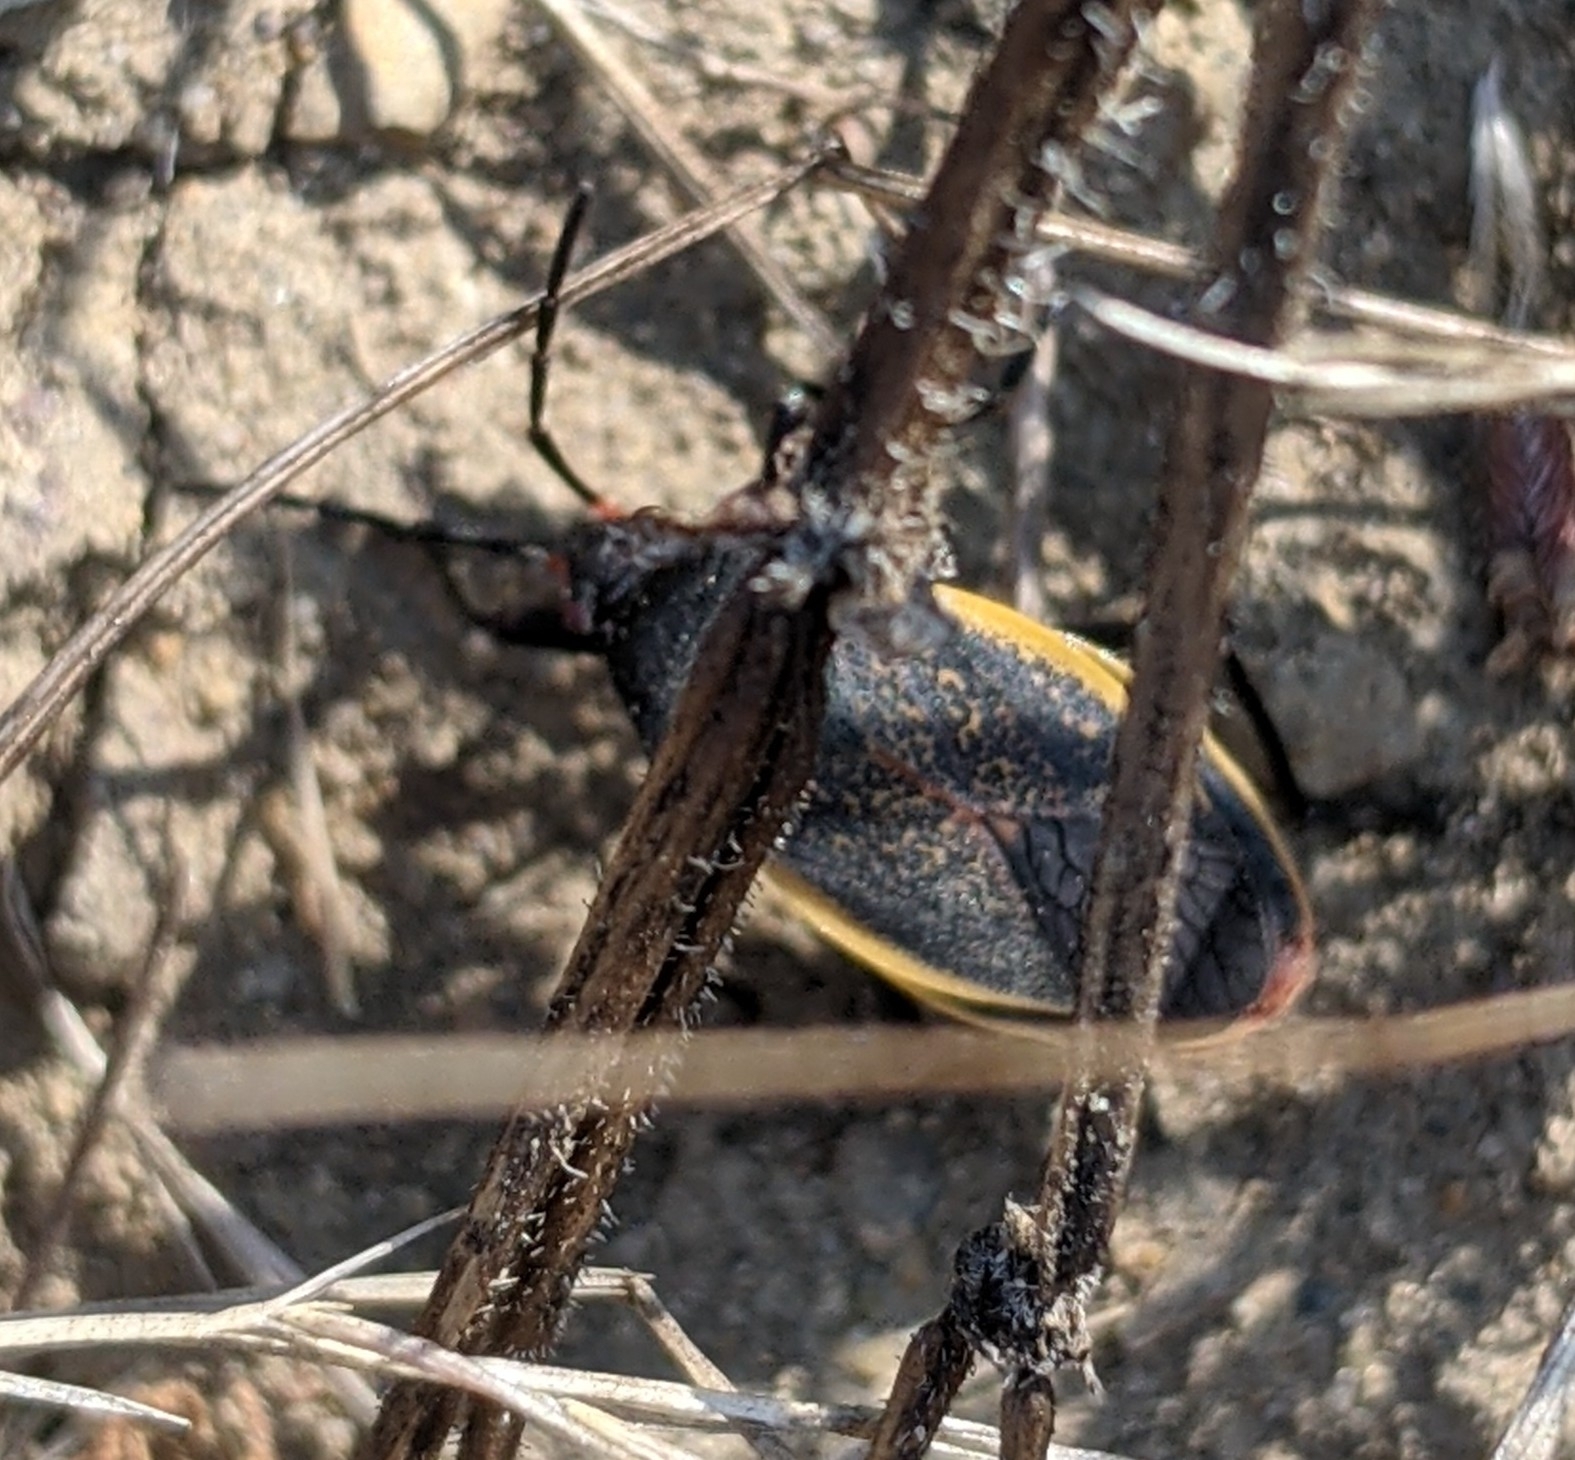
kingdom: Animalia
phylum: Arthropoda
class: Insecta
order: Hemiptera
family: Largidae
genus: Largus
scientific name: Largus californicus
